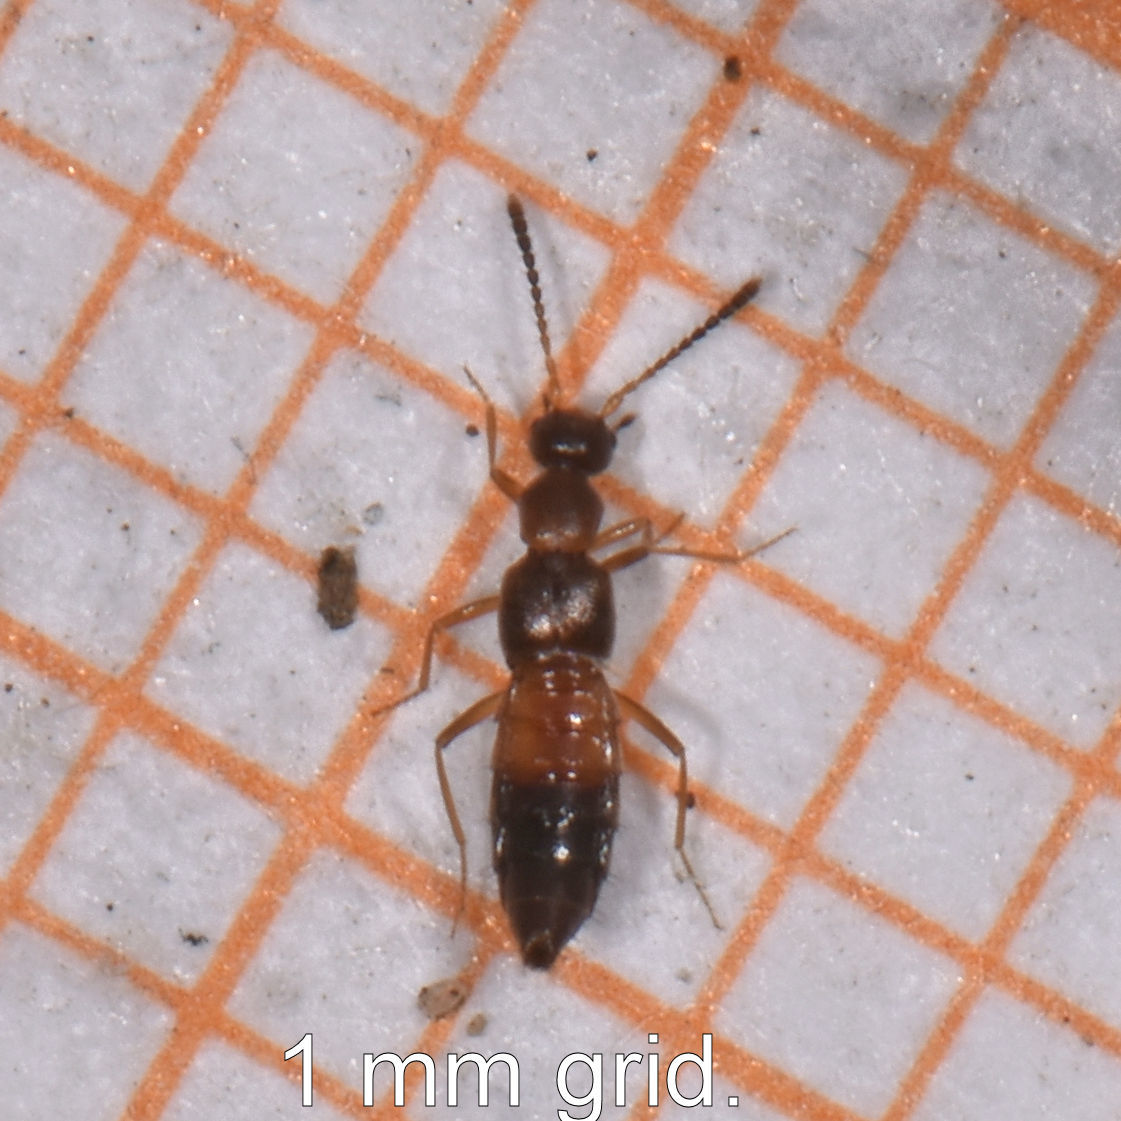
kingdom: Animalia
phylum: Arthropoda
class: Insecta
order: Coleoptera
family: Staphylinidae
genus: Meronera
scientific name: Meronera venustula
